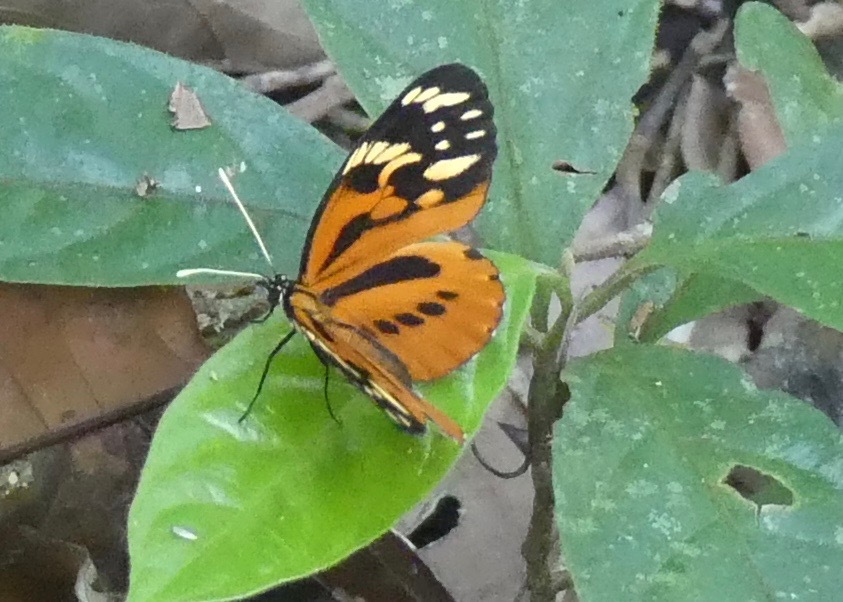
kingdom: Animalia
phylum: Arthropoda
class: Insecta
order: Lepidoptera
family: Nymphalidae
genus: Eresia
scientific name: Eresia pelonia
